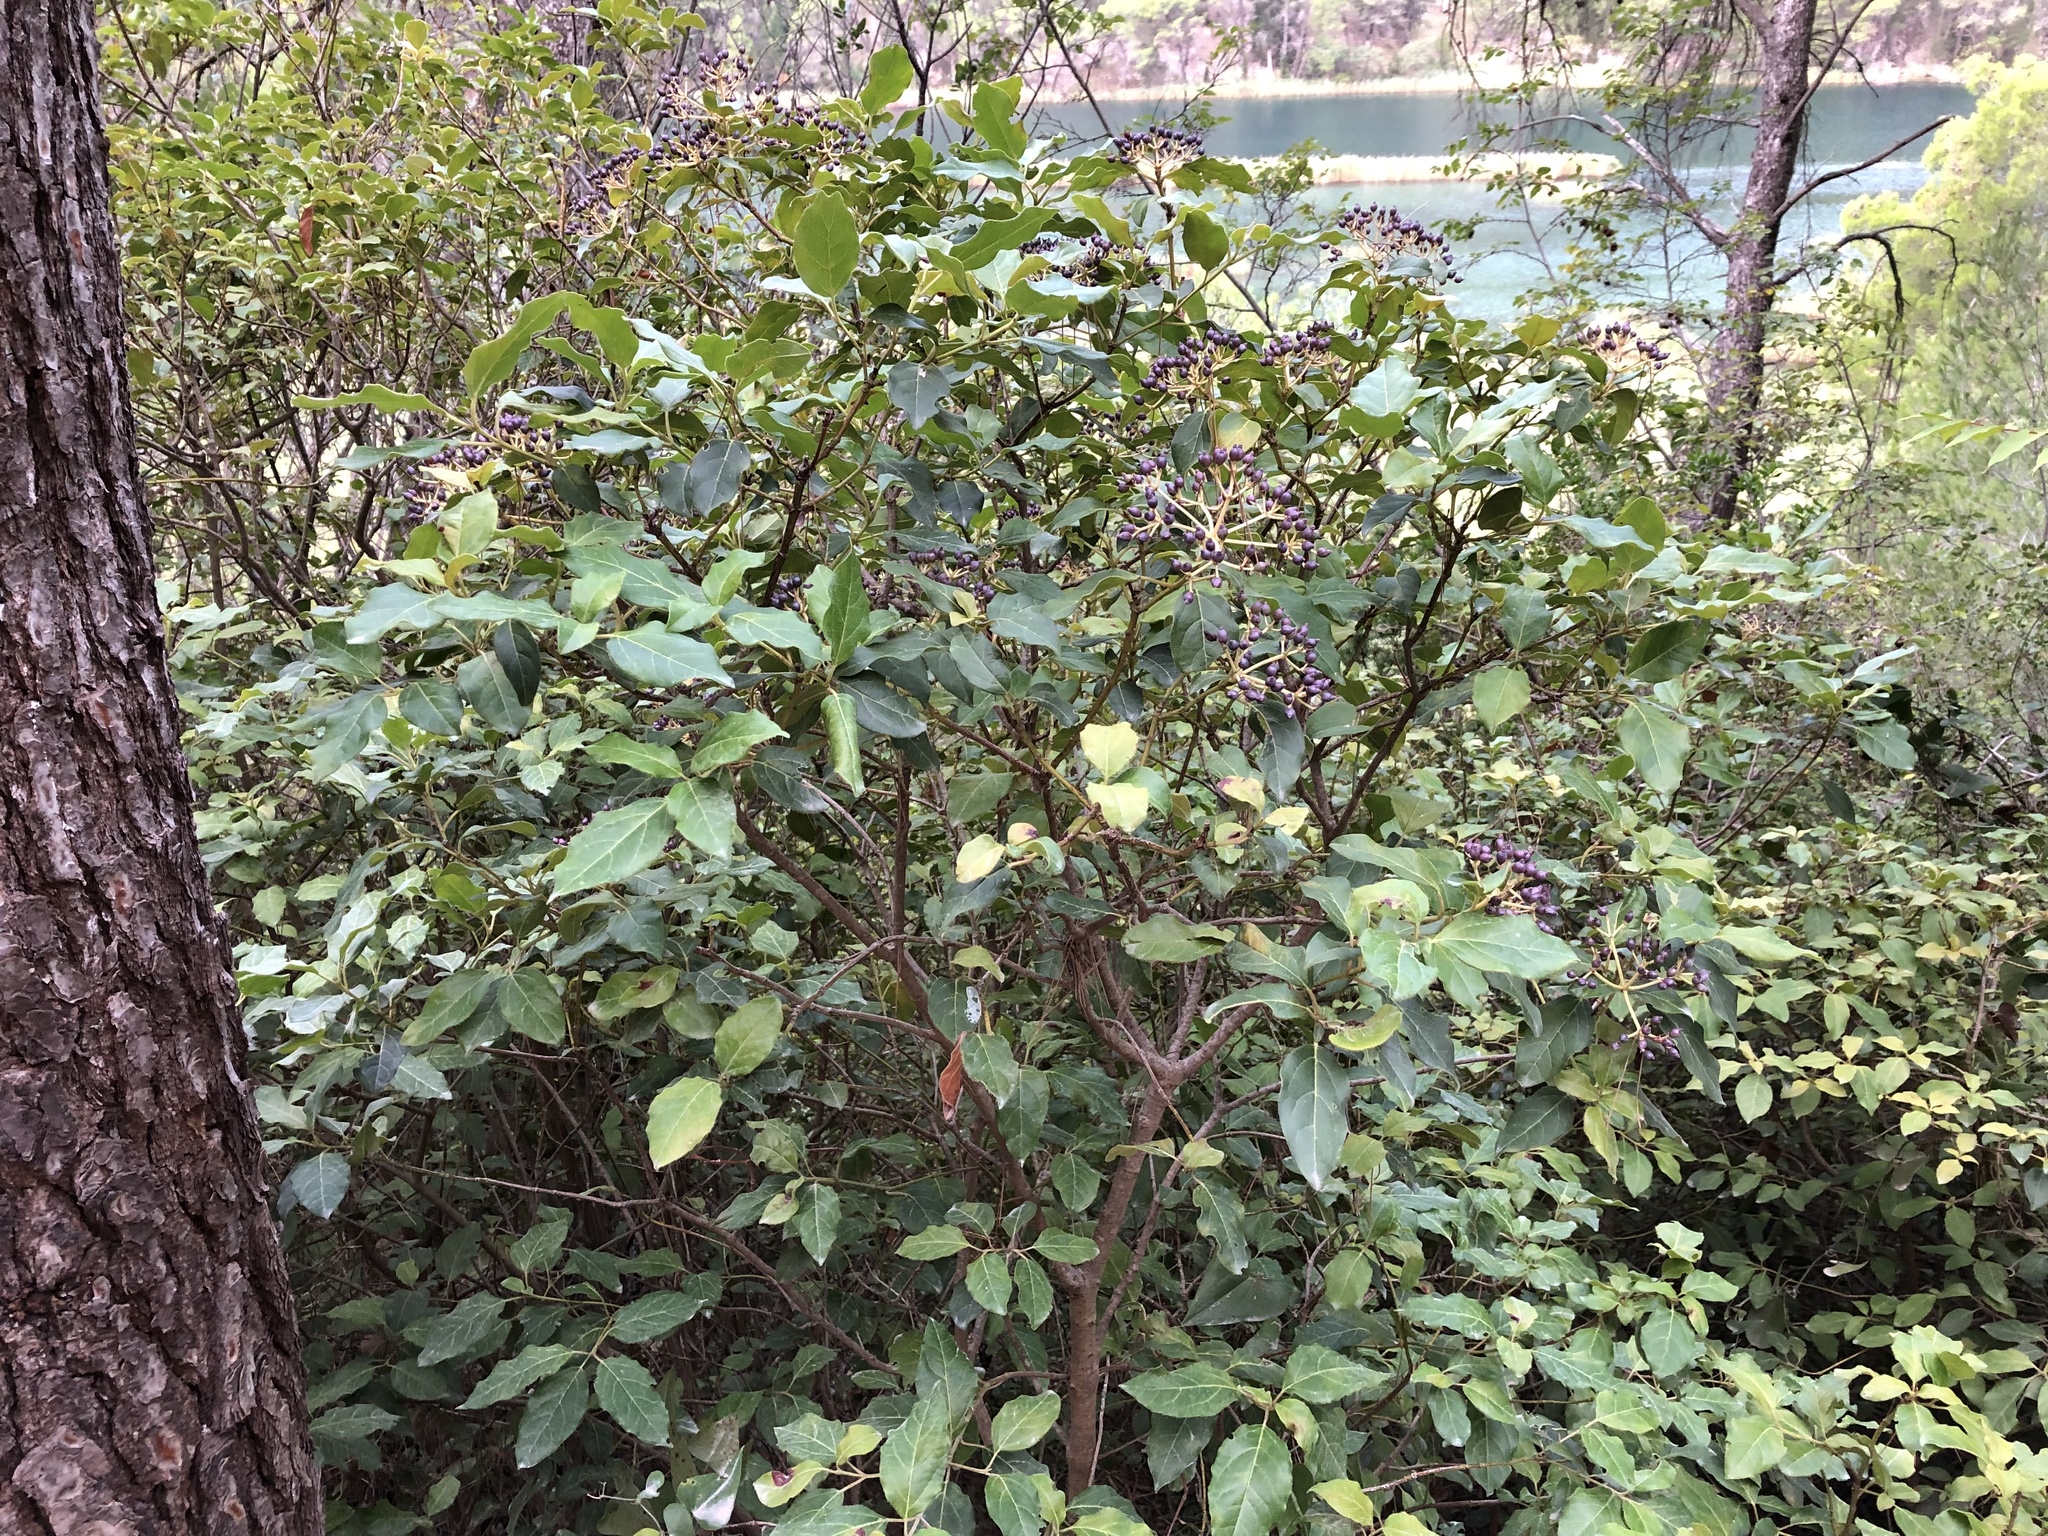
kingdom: Plantae
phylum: Tracheophyta
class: Magnoliopsida
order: Dipsacales
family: Viburnaceae
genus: Viburnum
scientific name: Viburnum tinus
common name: Laurustinus
